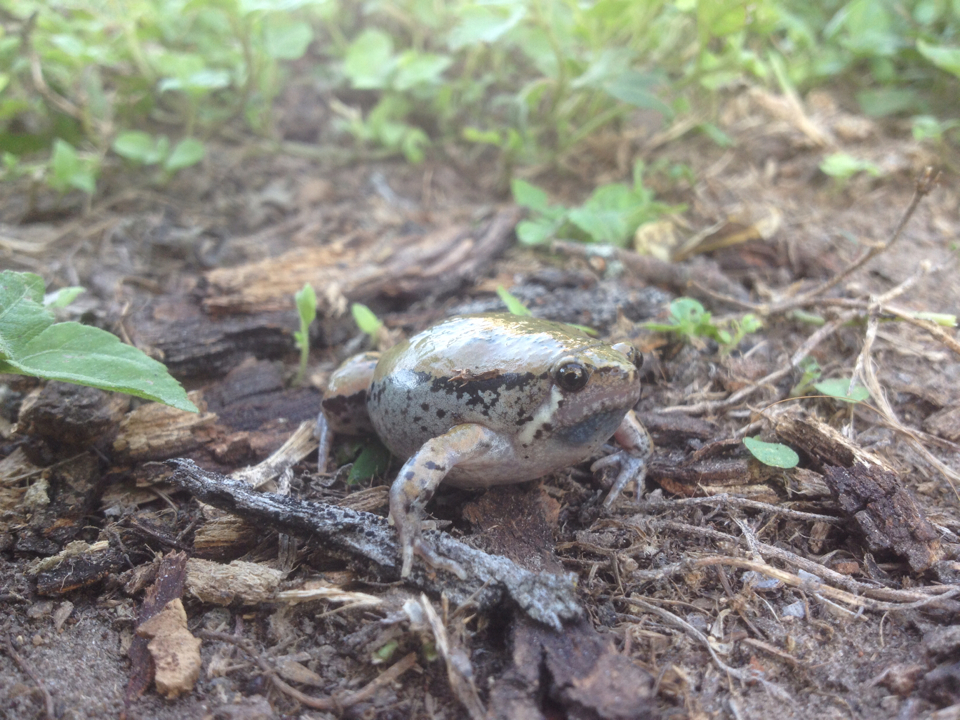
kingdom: Animalia
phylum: Chordata
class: Amphibia
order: Anura
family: Microhylidae
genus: Hypopachus
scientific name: Hypopachus variolosus
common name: Sheep frog
